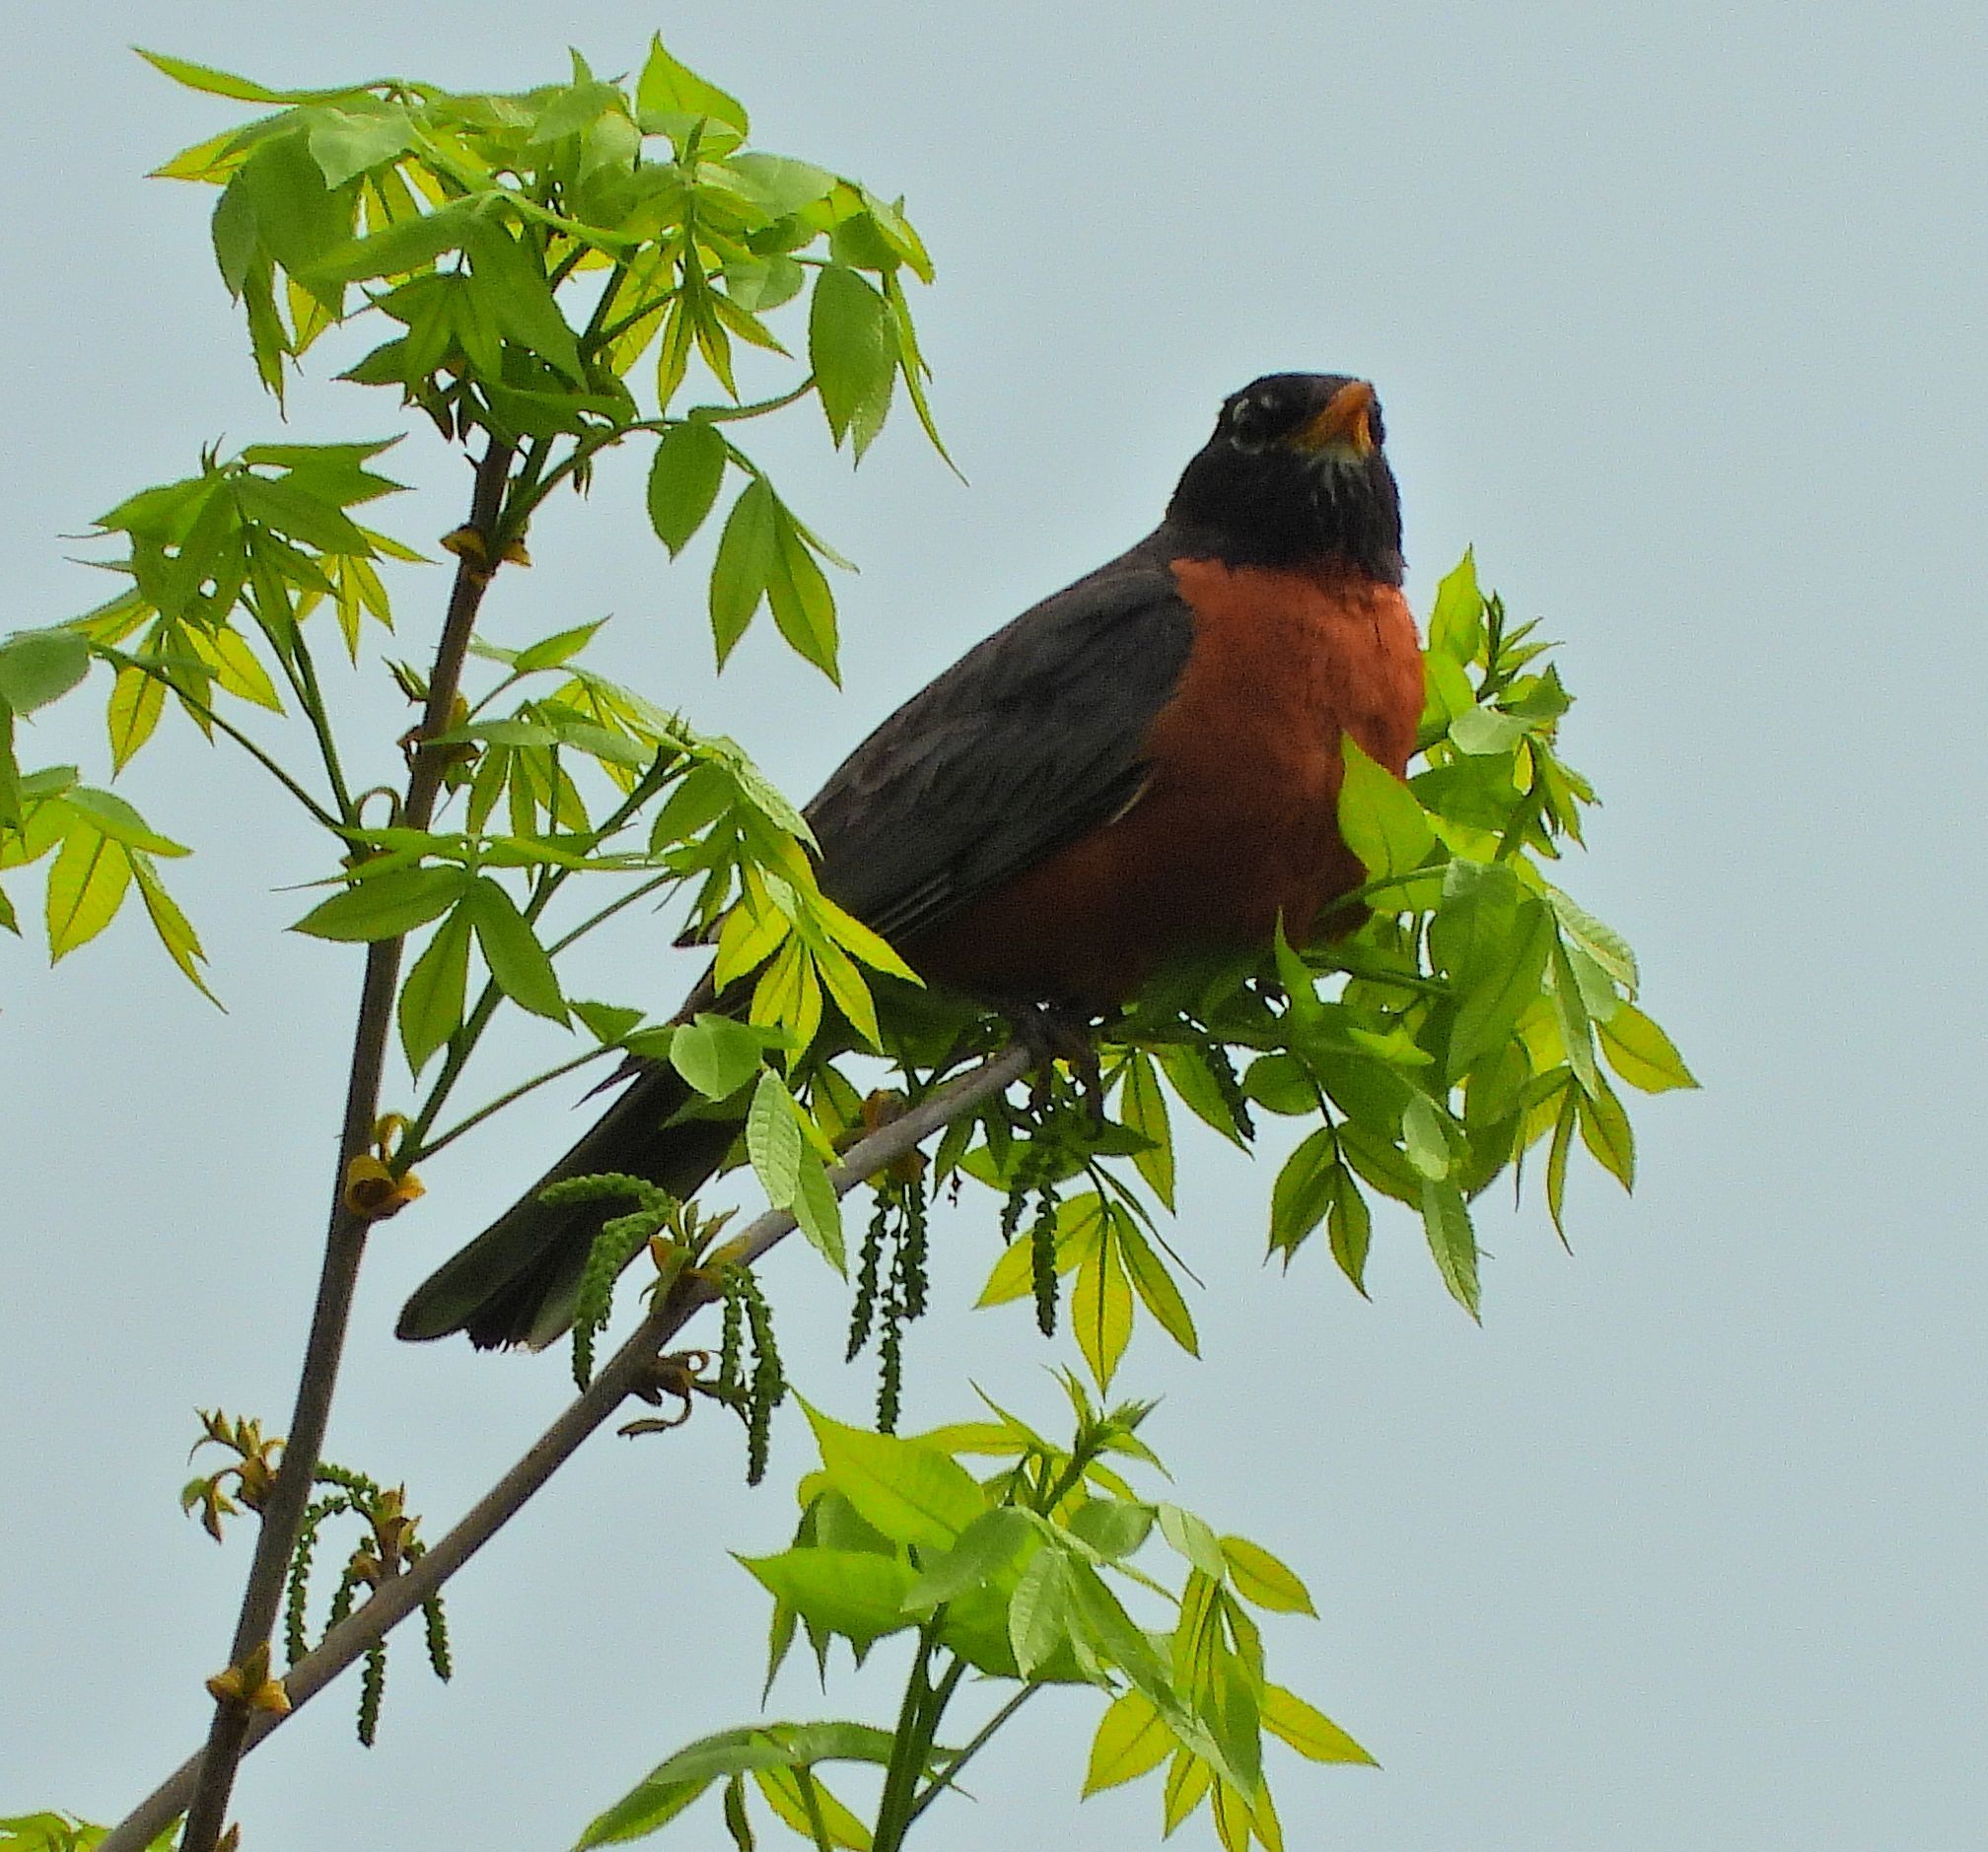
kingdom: Animalia
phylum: Chordata
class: Aves
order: Passeriformes
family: Turdidae
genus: Turdus
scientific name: Turdus migratorius
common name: American robin
